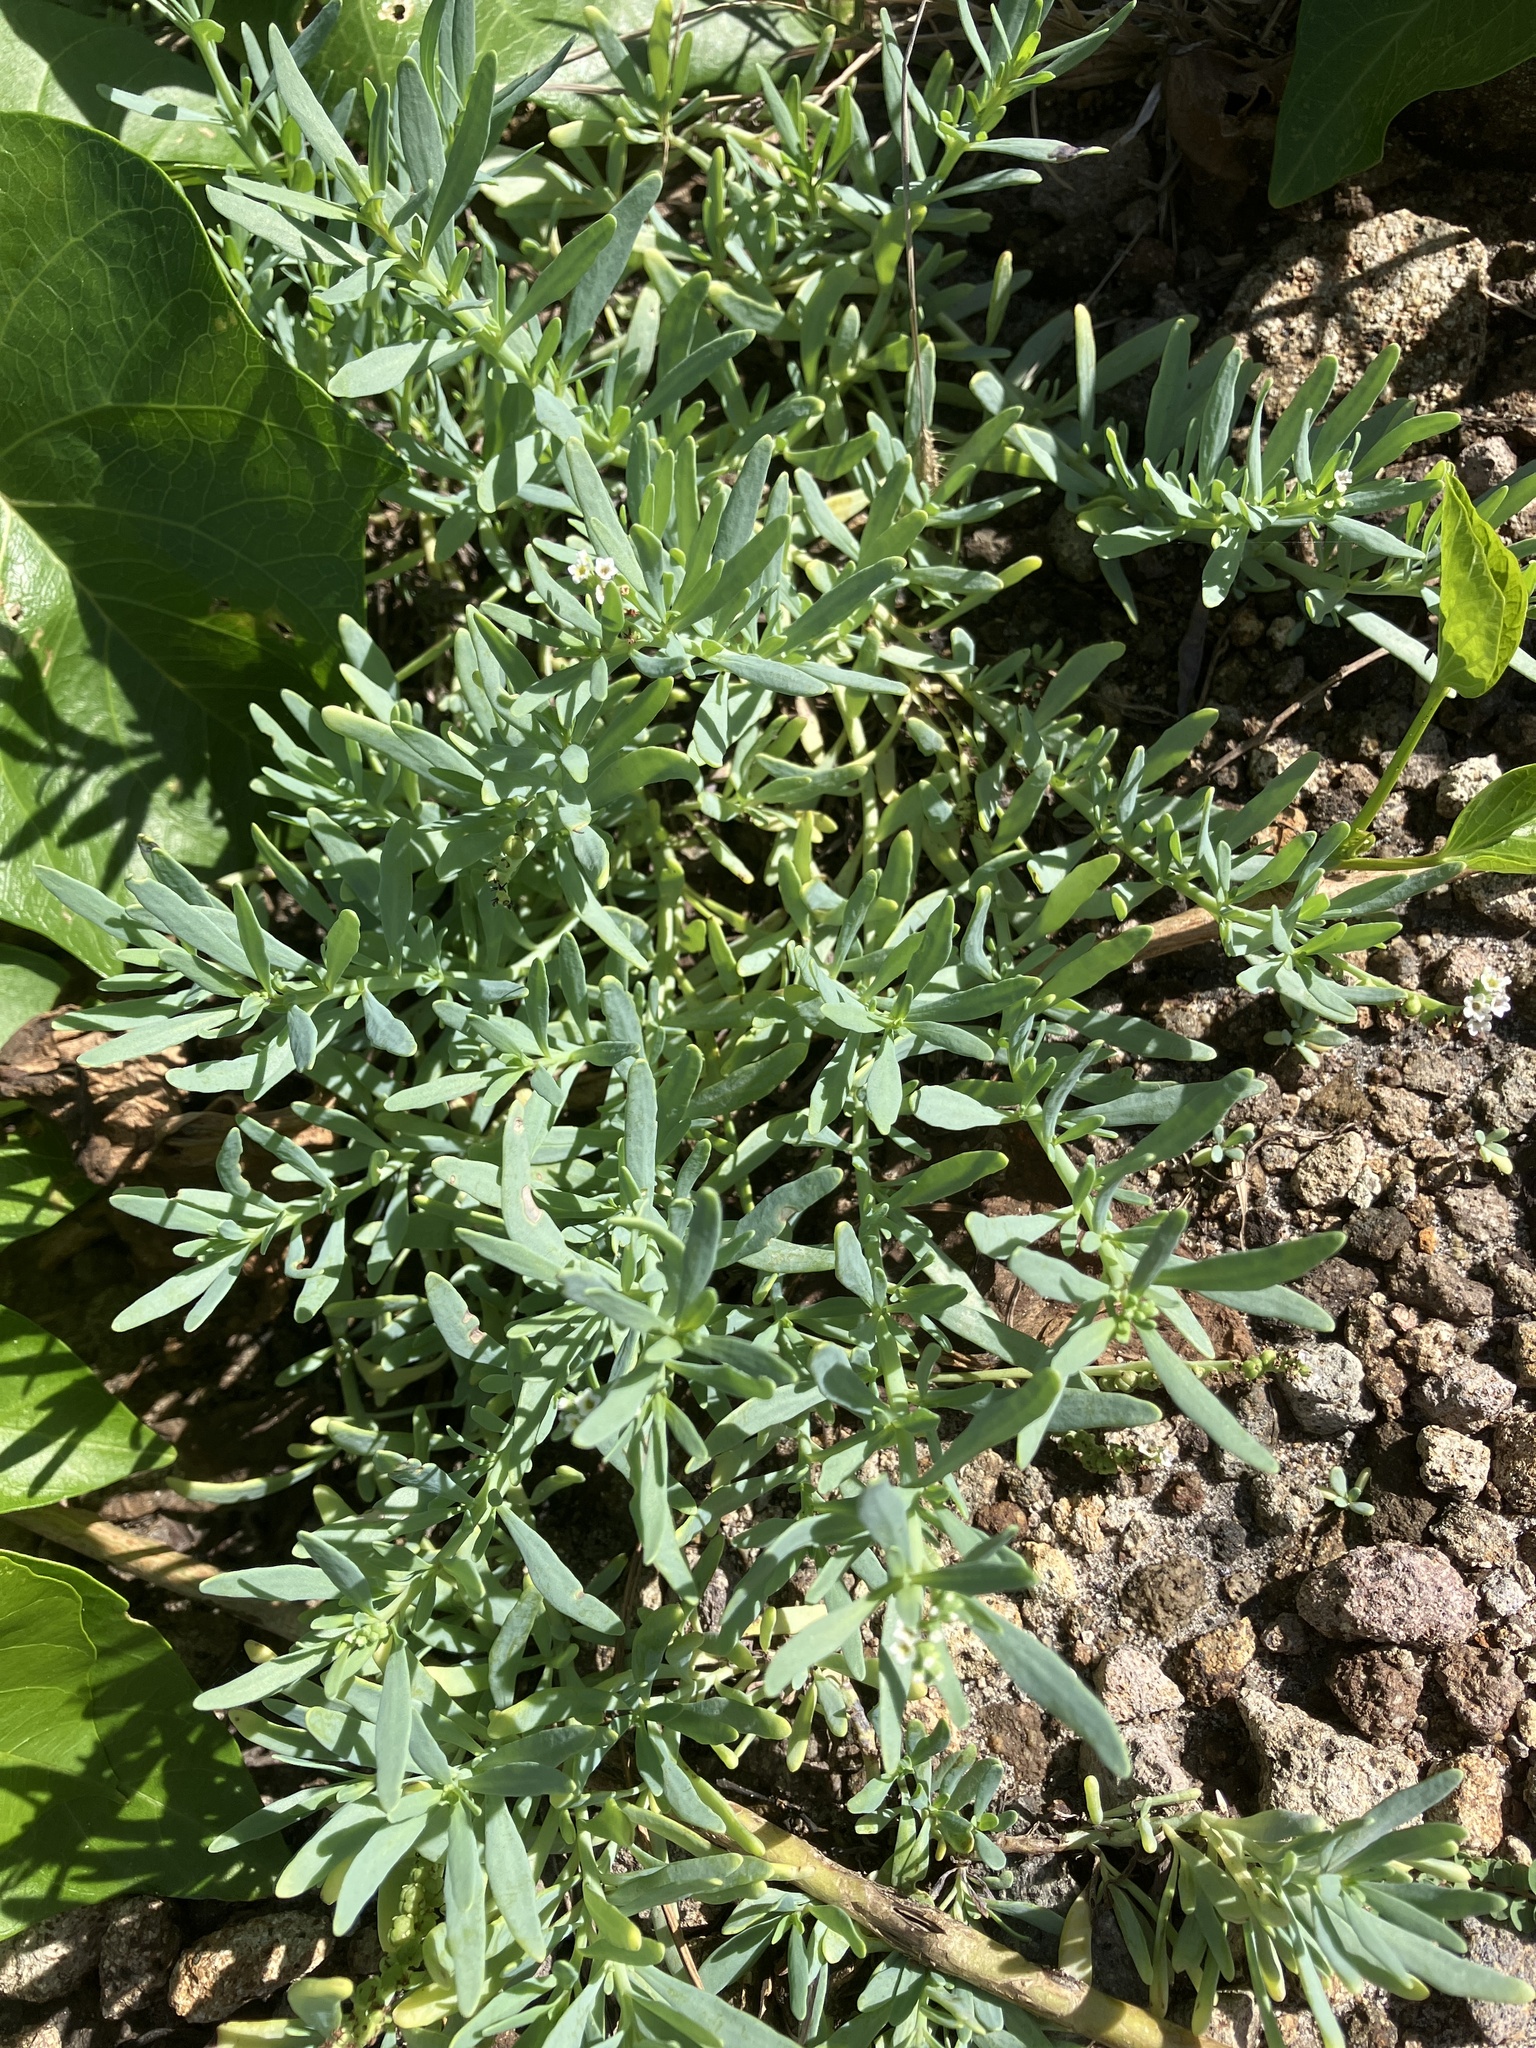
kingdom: Plantae
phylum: Tracheophyta
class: Magnoliopsida
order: Boraginales
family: Heliotropiaceae
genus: Heliotropium
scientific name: Heliotropium curassavicum
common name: Seaside heliotrope
